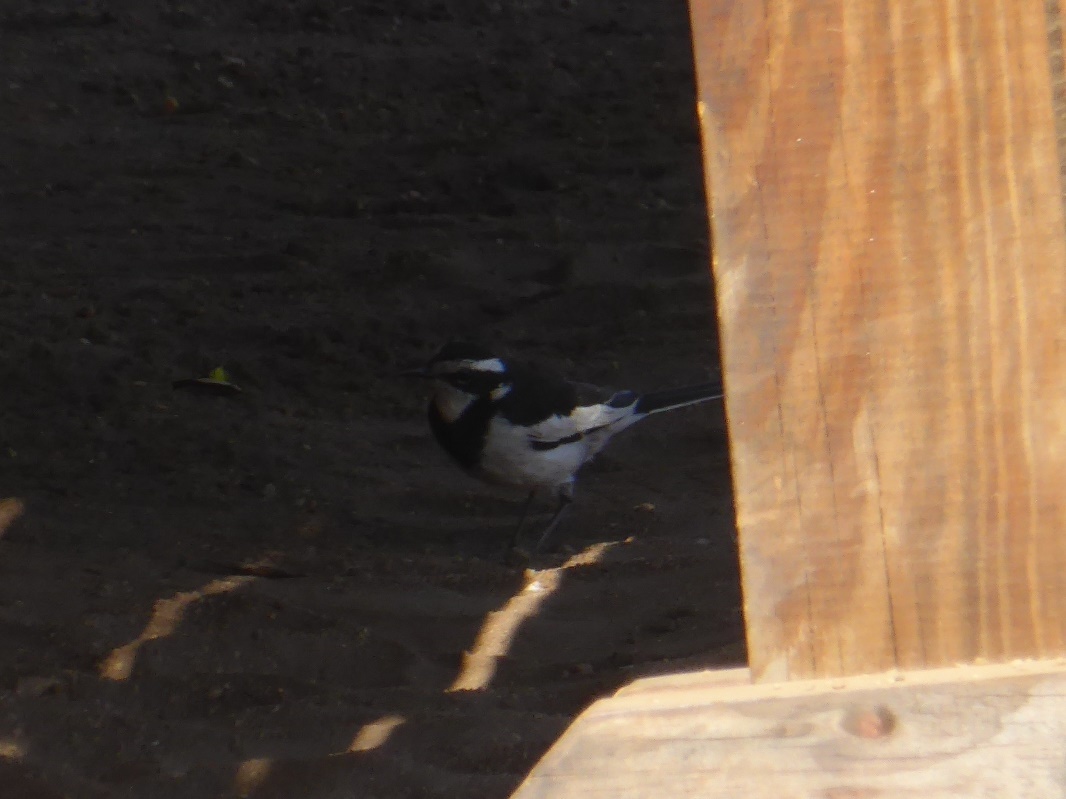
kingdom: Animalia
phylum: Chordata
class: Aves
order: Passeriformes
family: Motacillidae
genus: Motacilla
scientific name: Motacilla aguimp
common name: African pied wagtail
